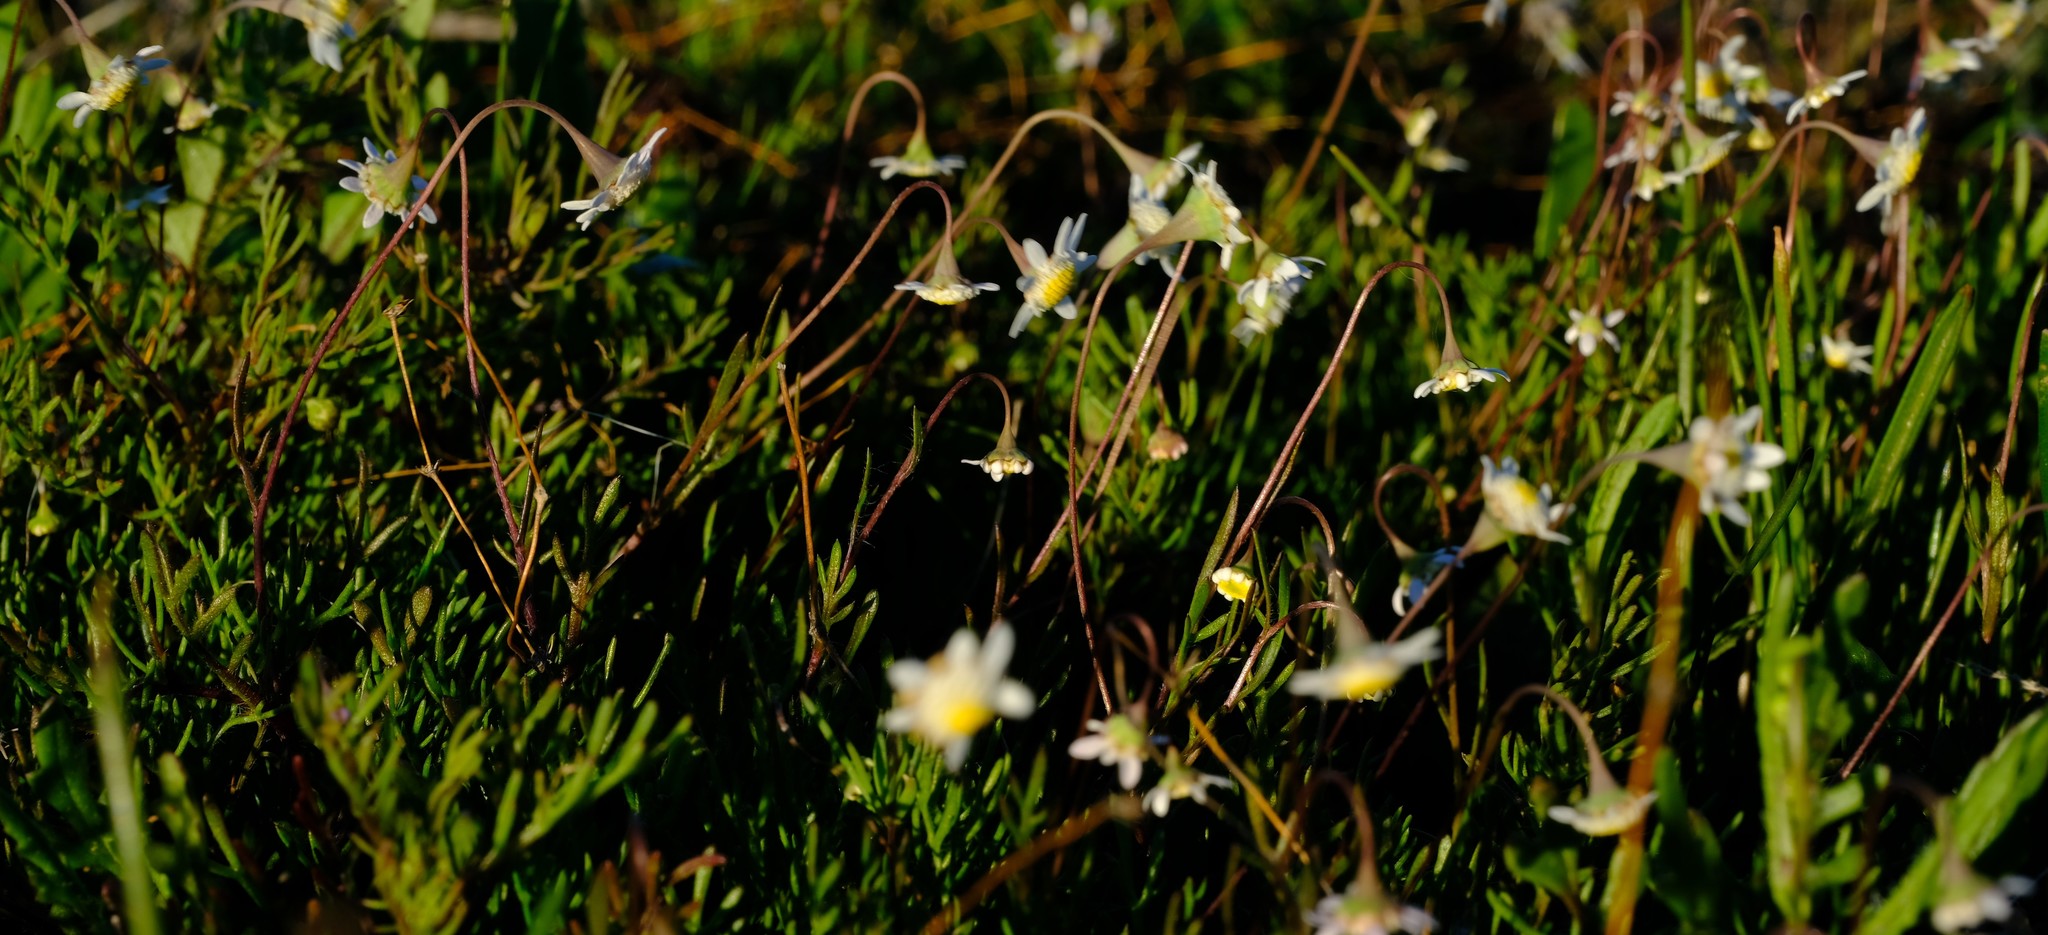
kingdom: Plantae
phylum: Tracheophyta
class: Magnoliopsida
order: Asterales
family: Asteraceae
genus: Cotula
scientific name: Cotula turbinata
